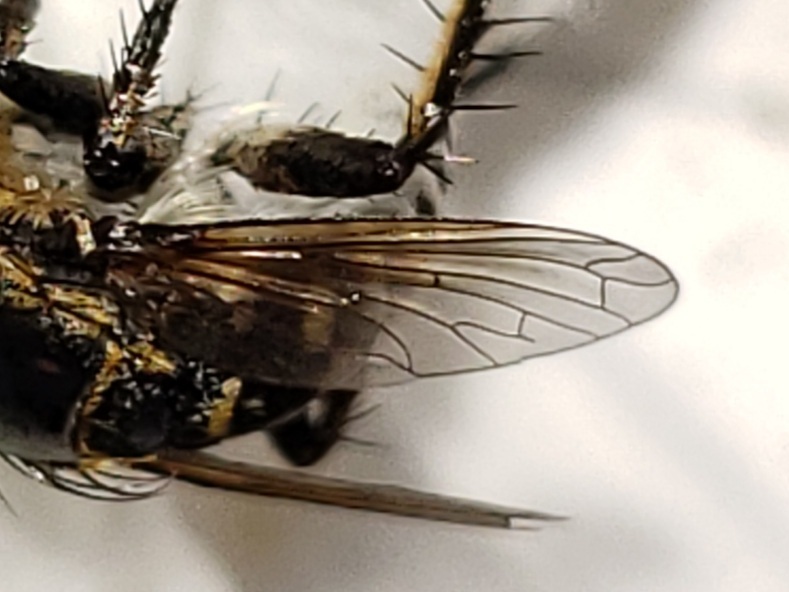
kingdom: Animalia
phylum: Arthropoda
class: Insecta
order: Diptera
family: Bombyliidae
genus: Toxophora
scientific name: Toxophora amphitea
